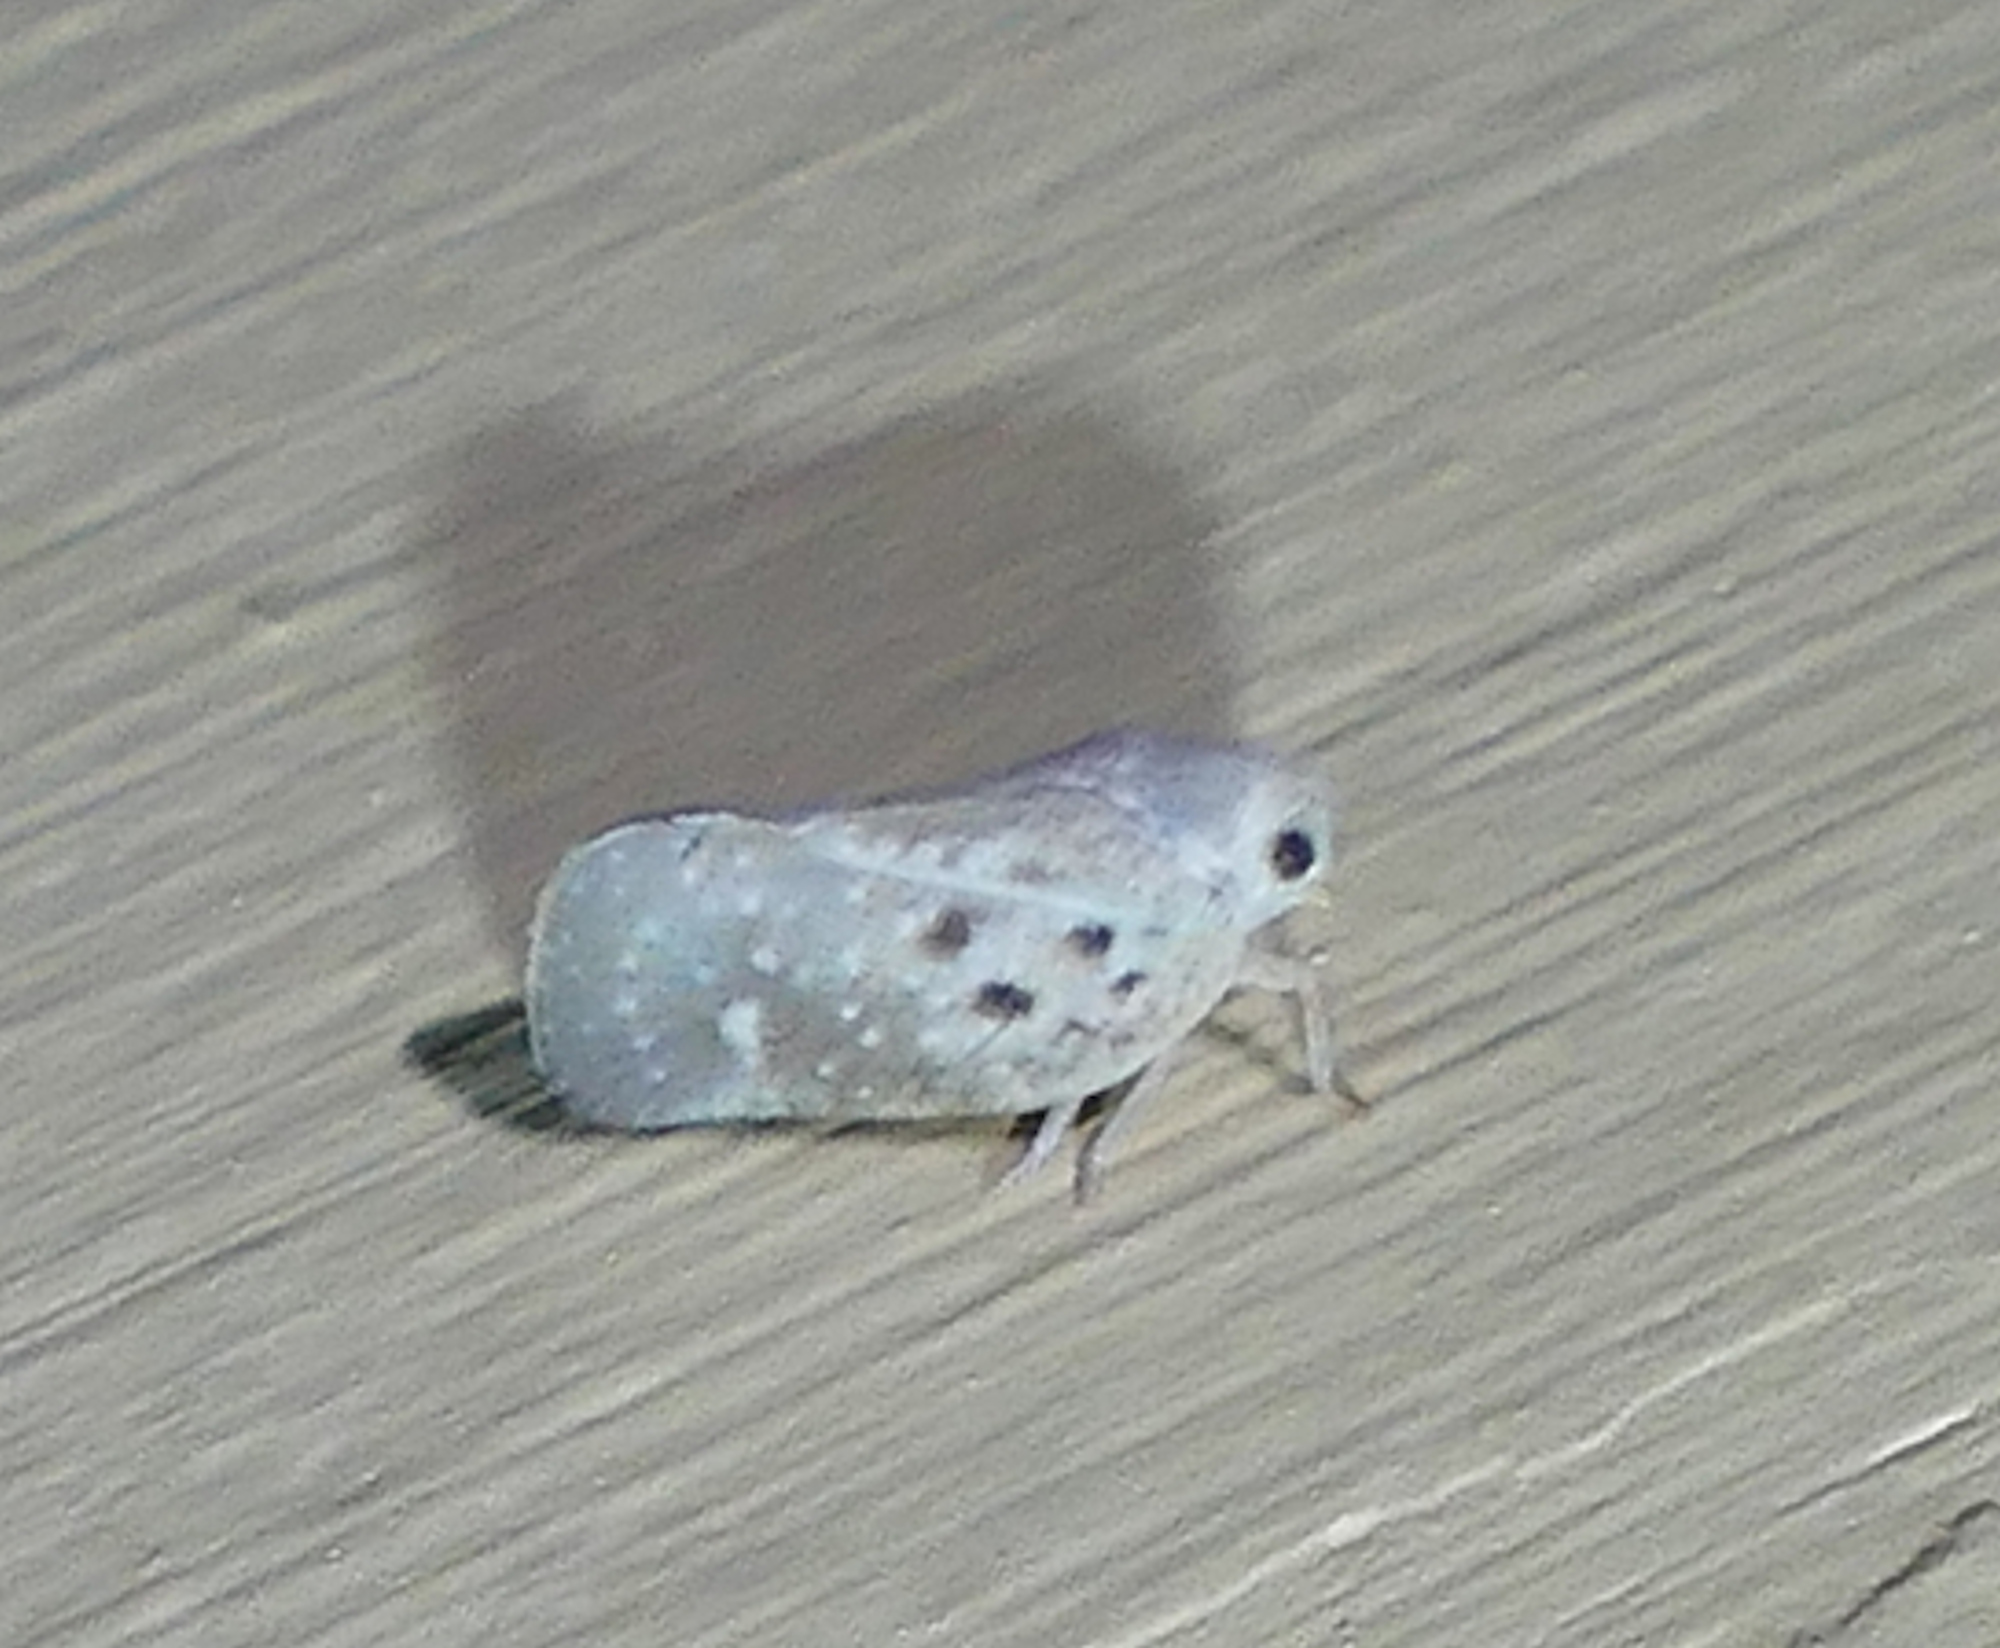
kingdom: Animalia
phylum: Arthropoda
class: Insecta
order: Hemiptera
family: Flatidae
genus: Metcalfa
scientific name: Metcalfa pruinosa
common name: Citrus flatid planthopper
